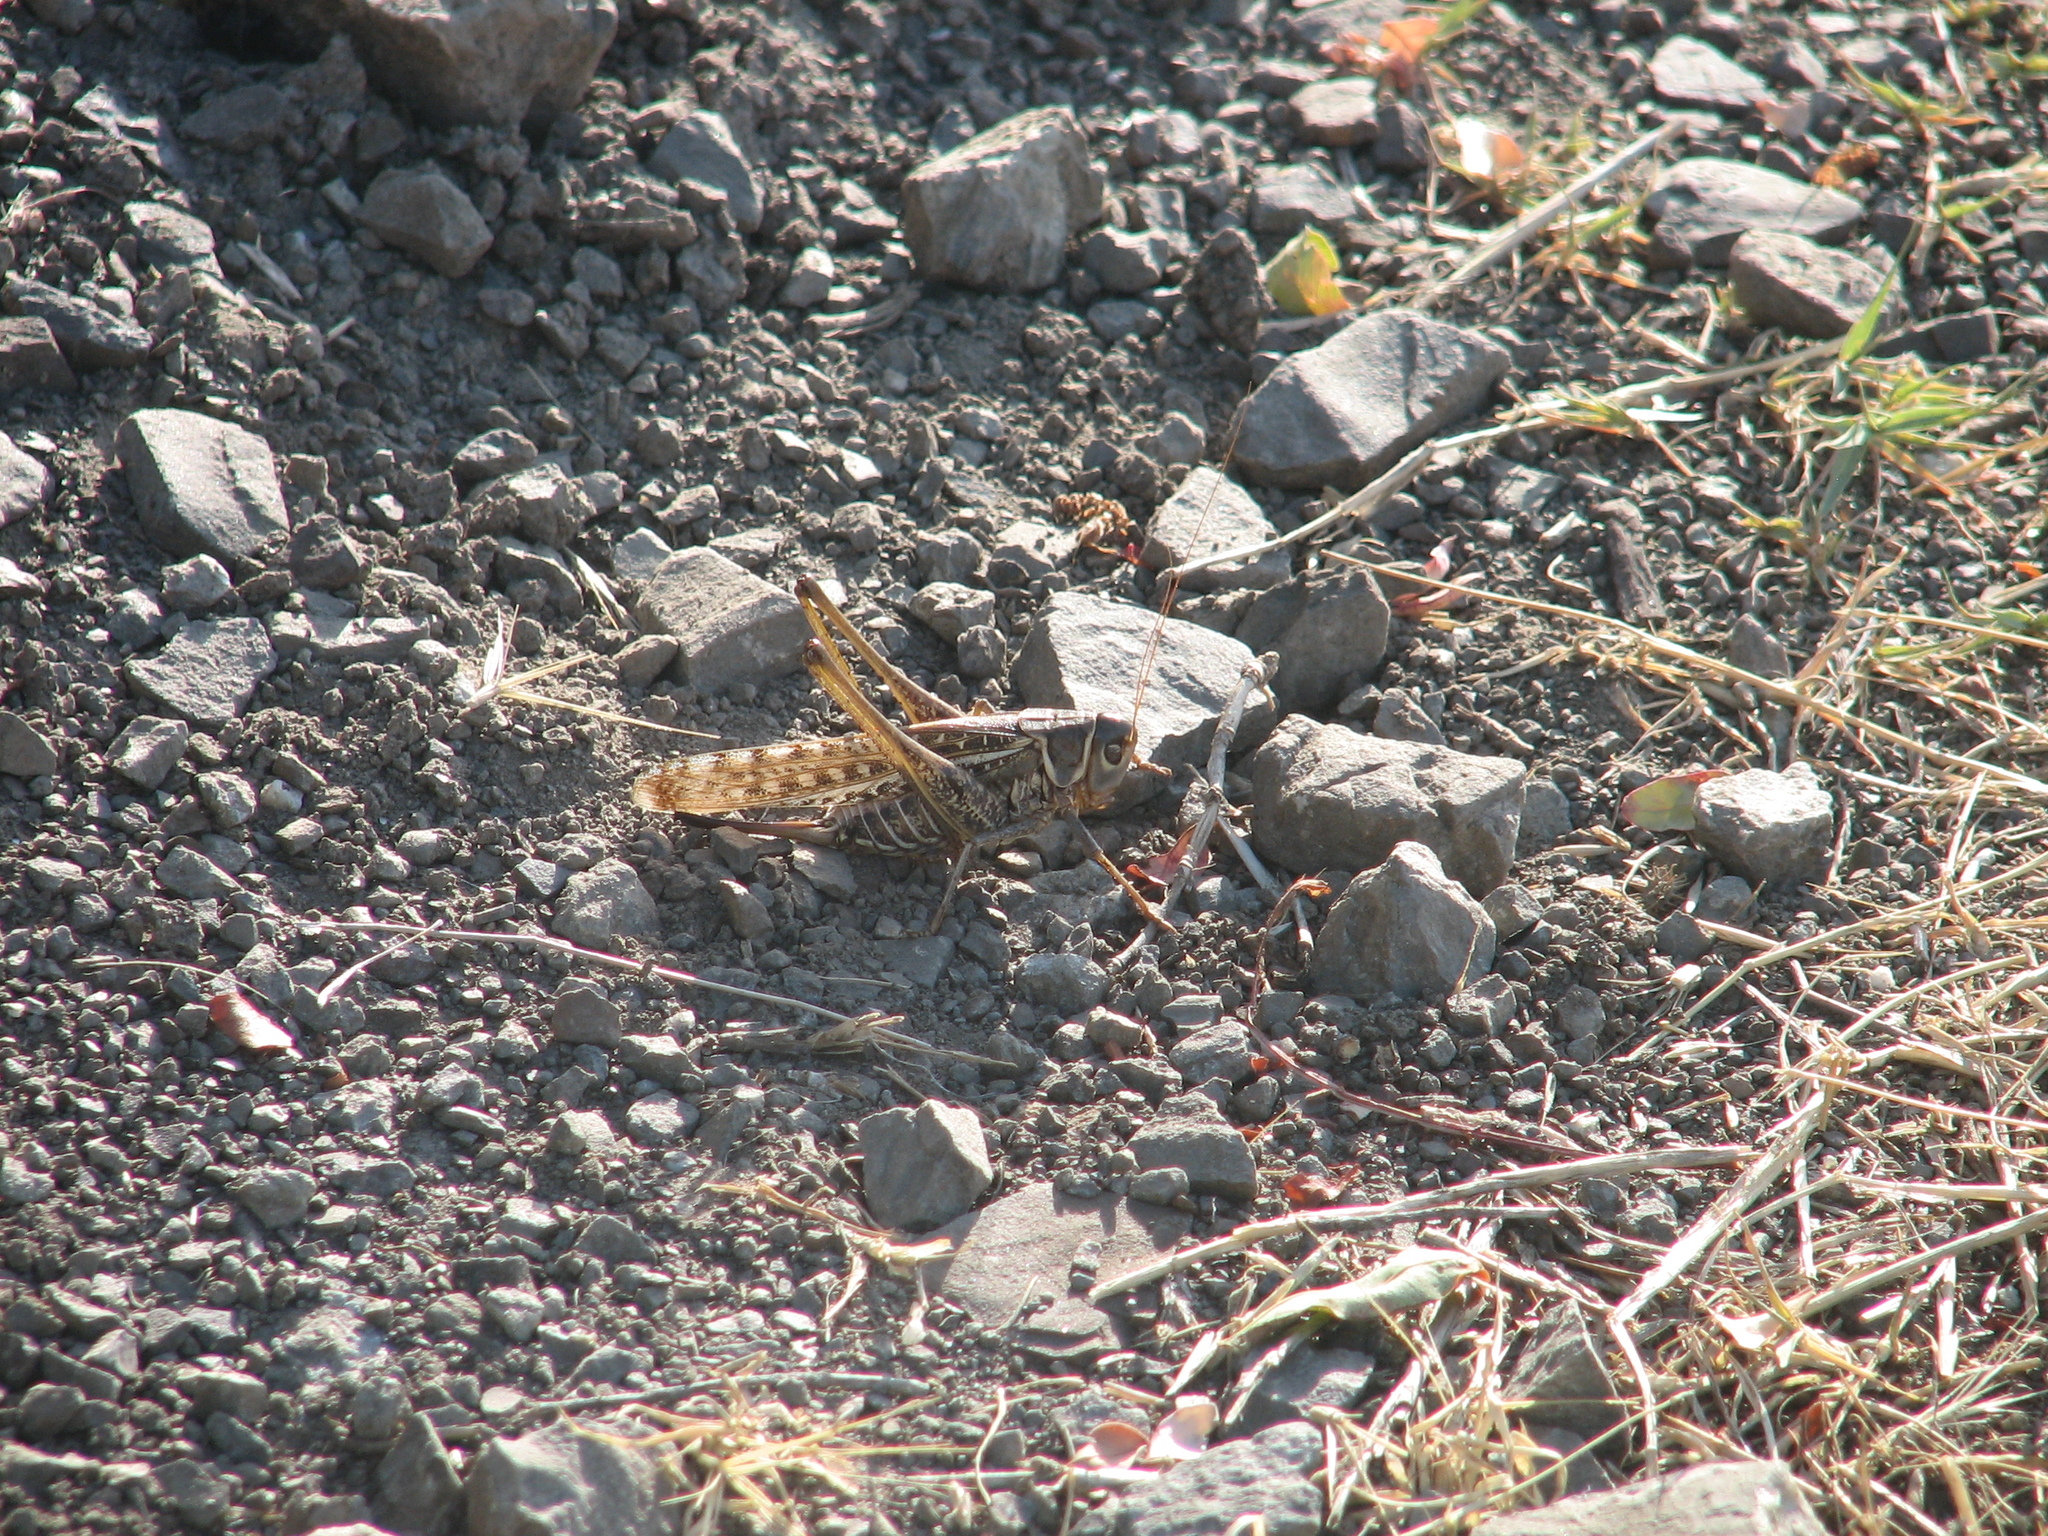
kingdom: Animalia
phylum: Arthropoda
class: Insecta
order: Orthoptera
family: Tettigoniidae
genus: Decticus
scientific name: Decticus albifrons
